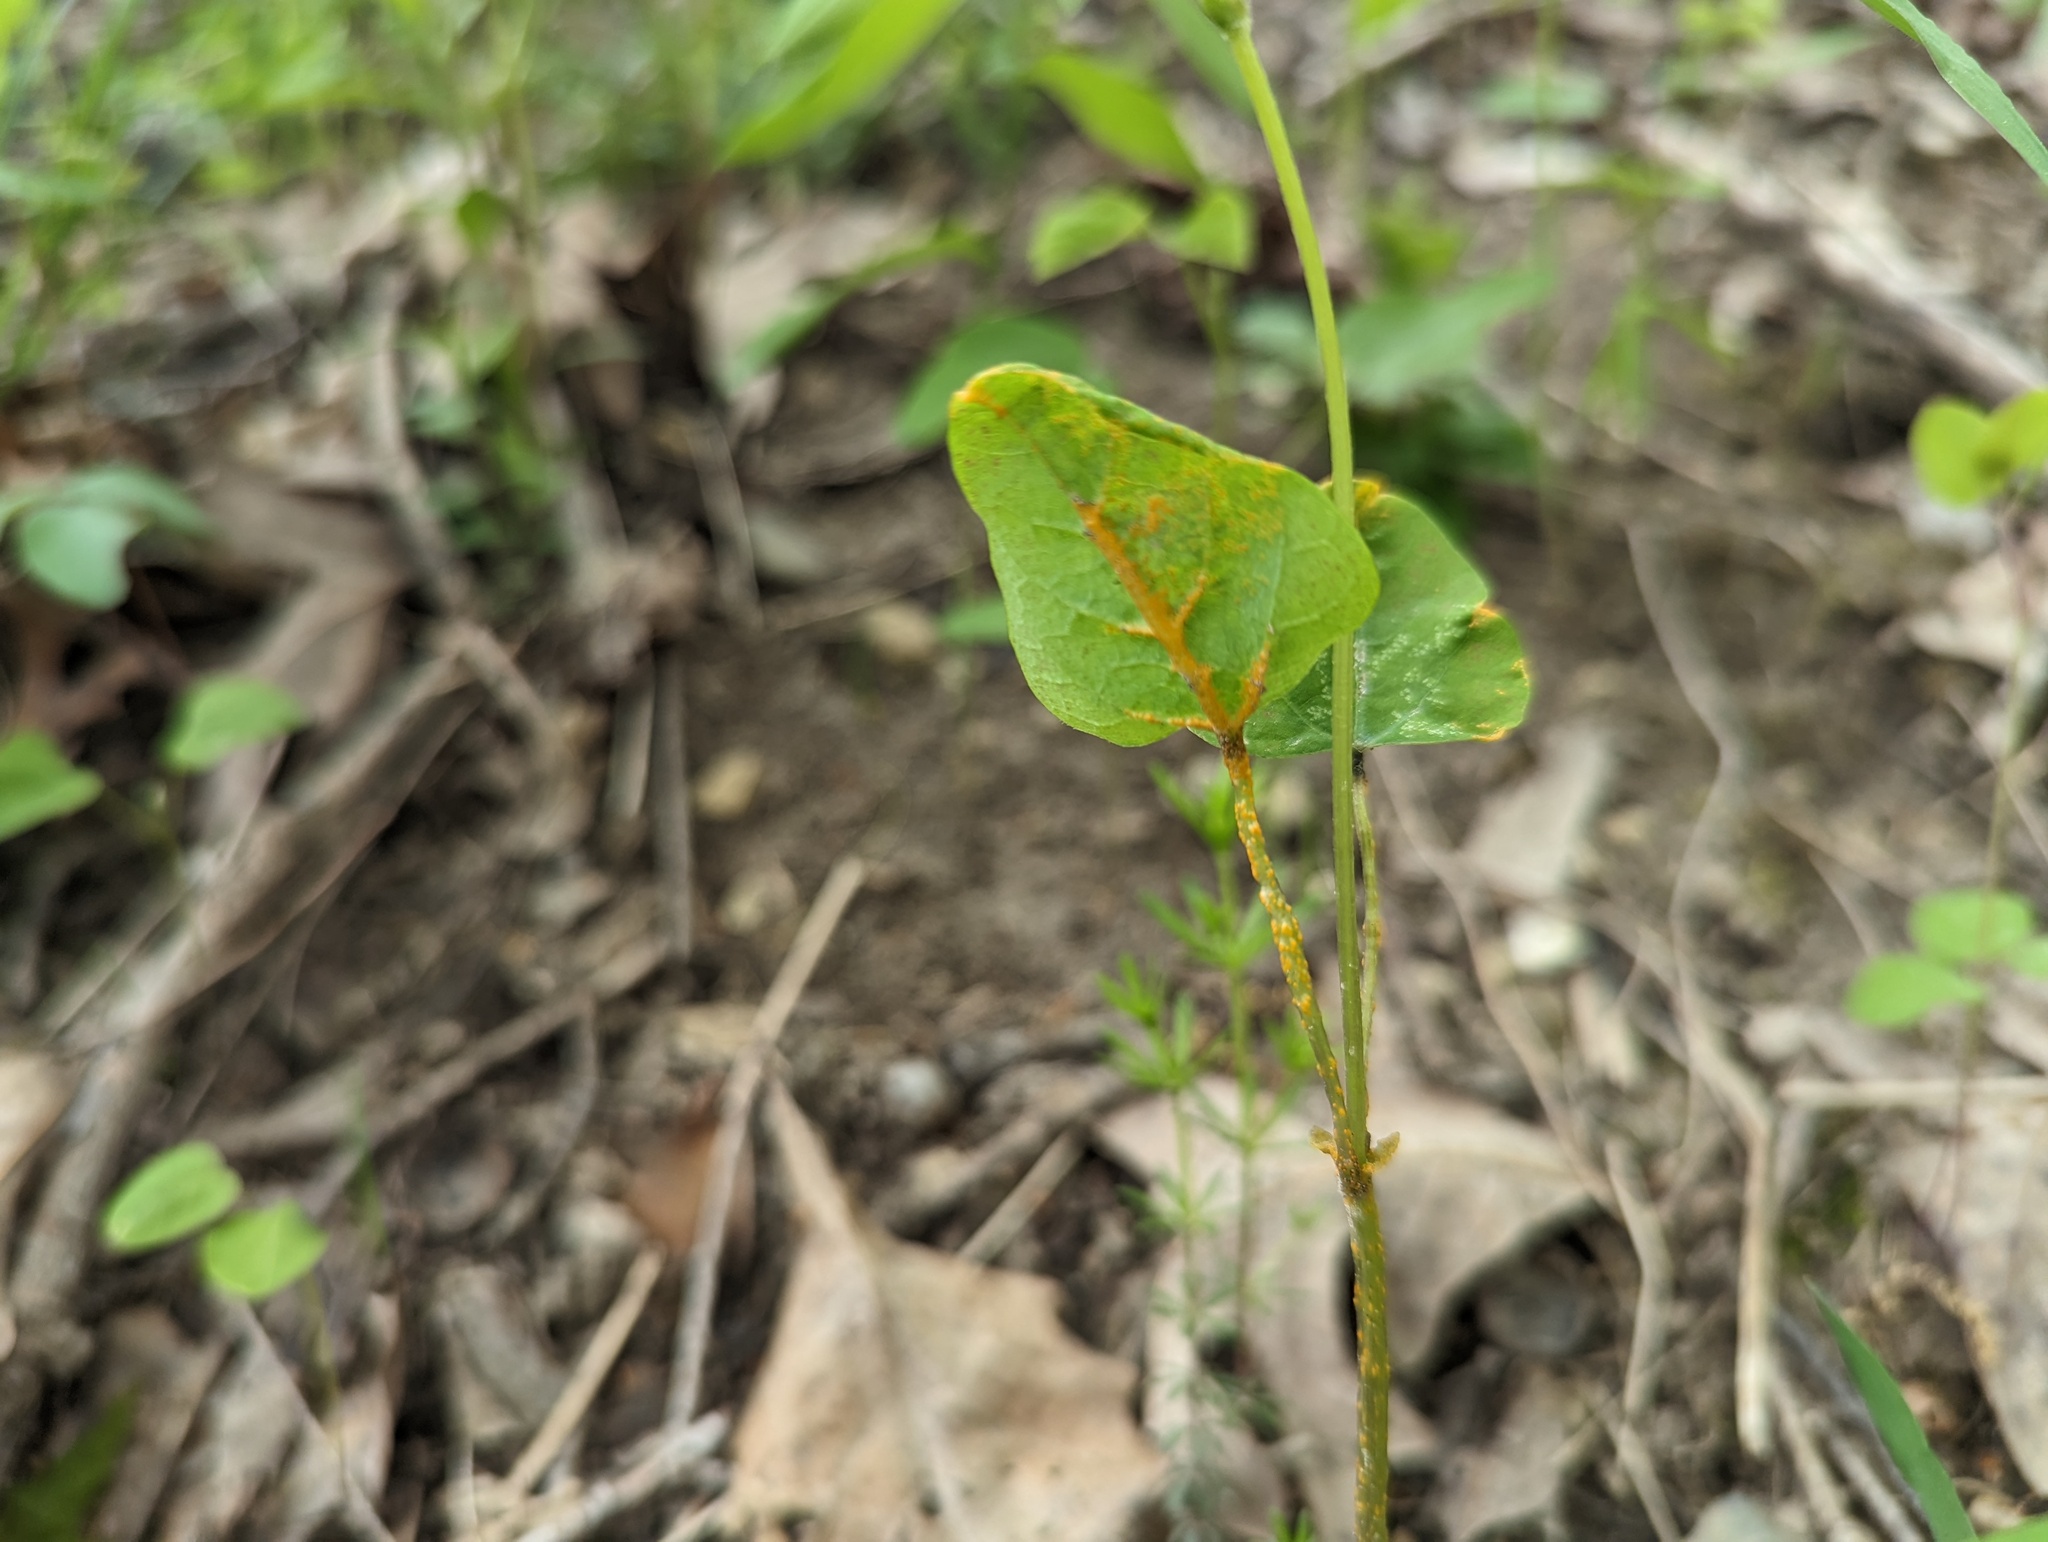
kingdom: Fungi
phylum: Chytridiomycota
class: Chytridiomycetes
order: Chytridiales
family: Synchytriaceae
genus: Miyabella
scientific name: Miyabella aecidioides
